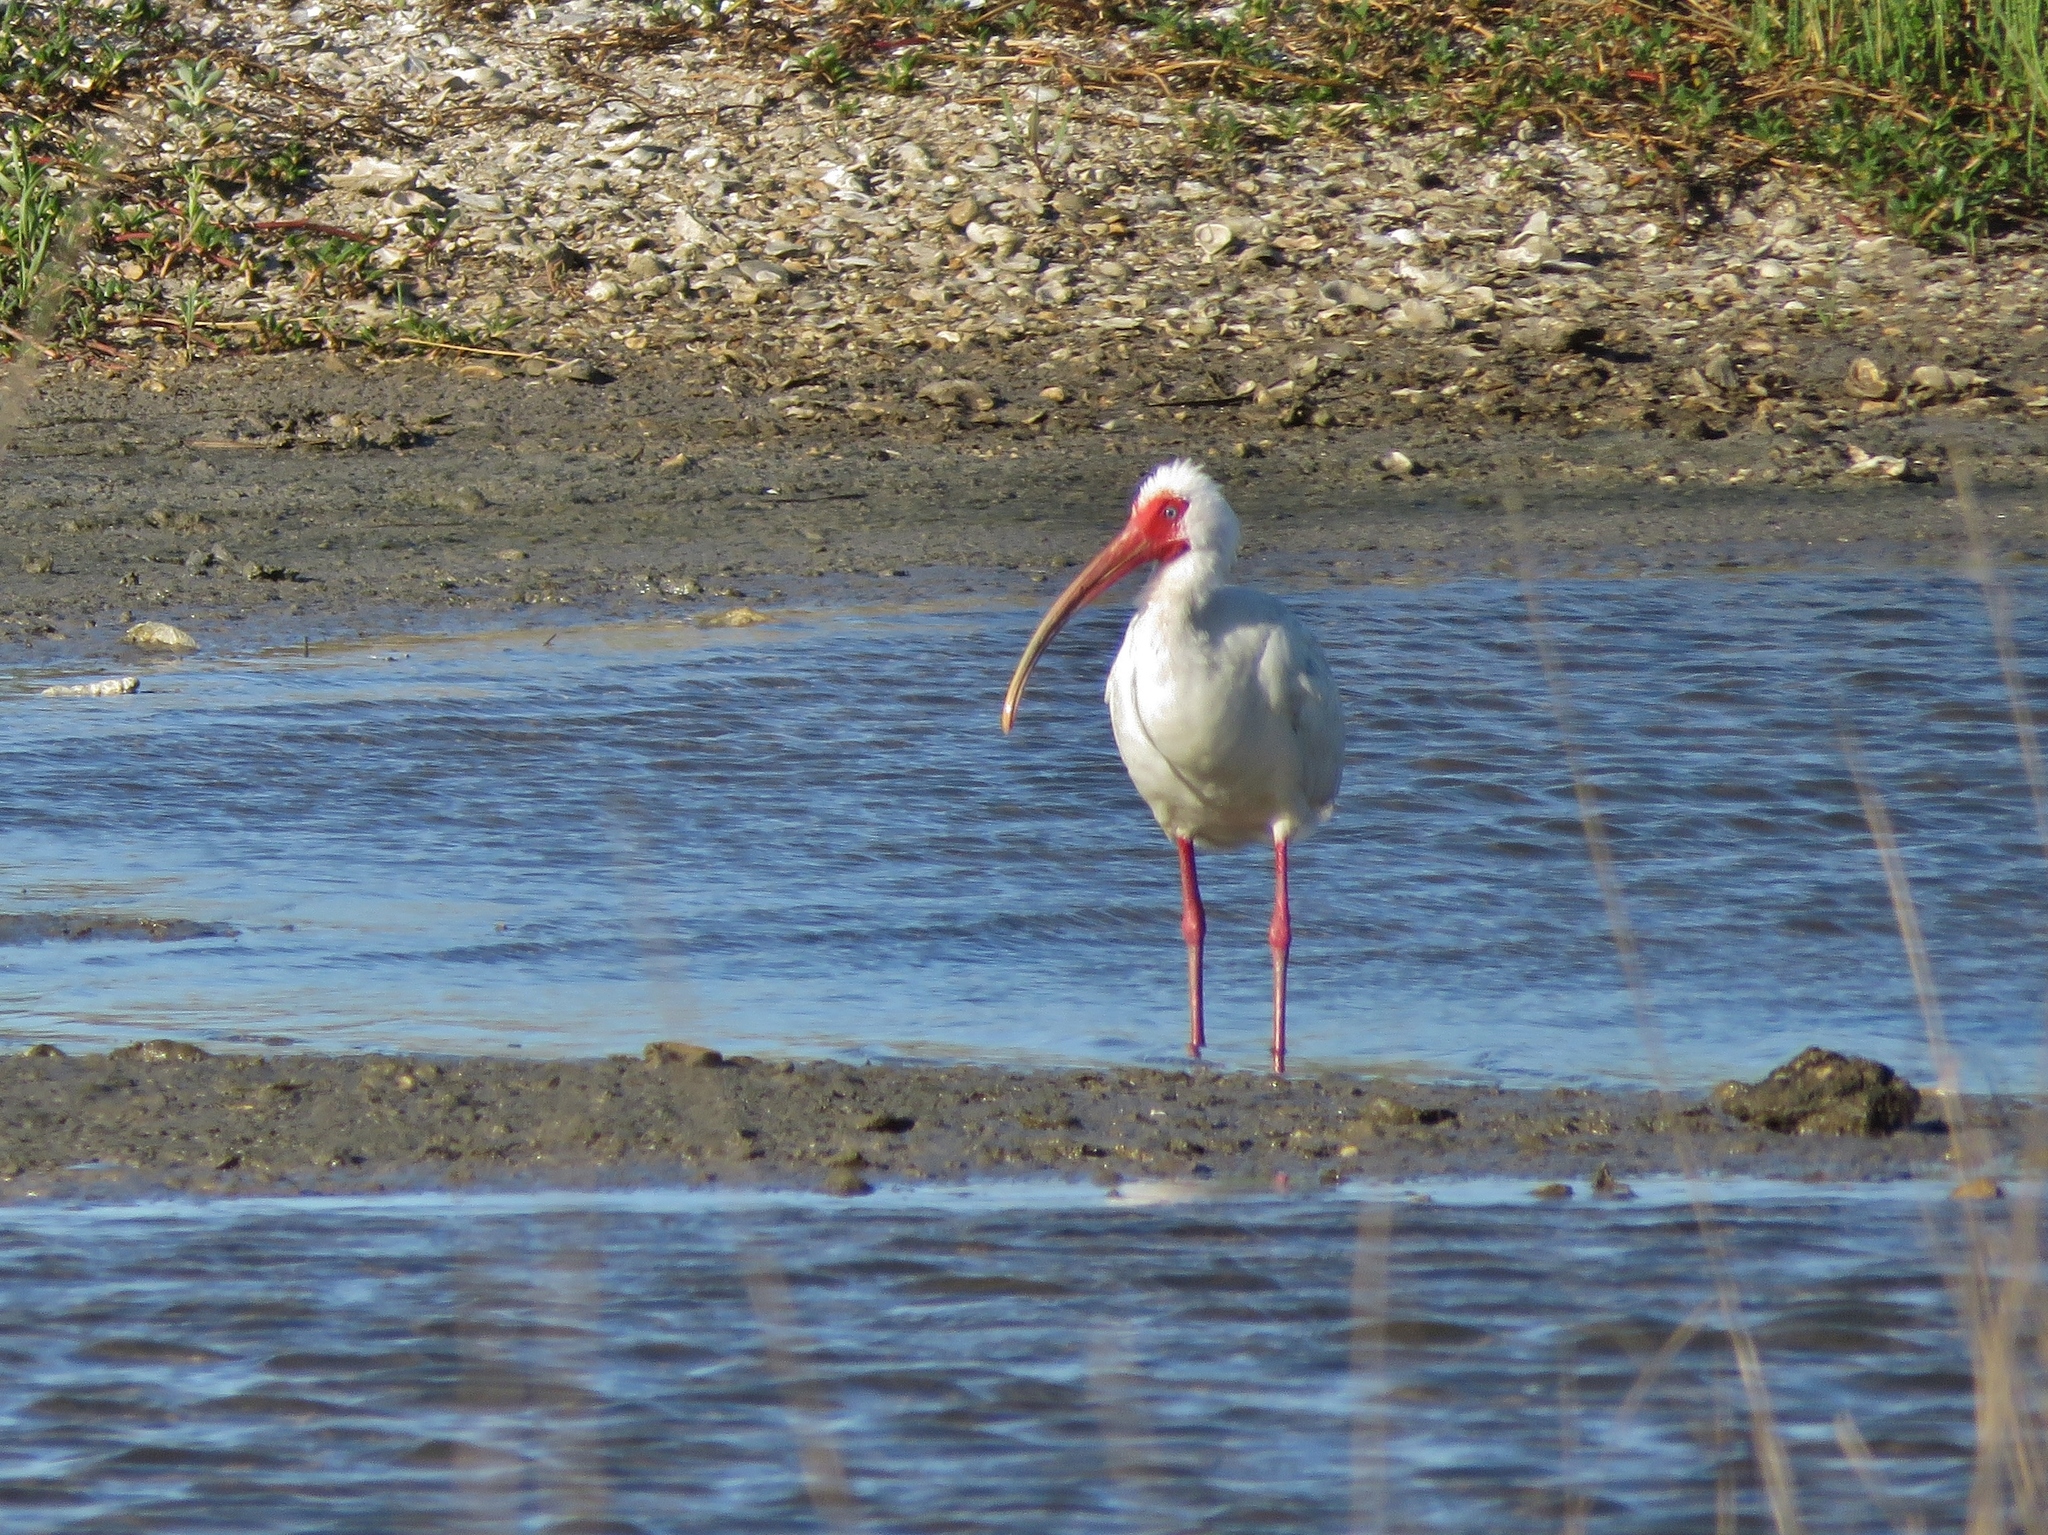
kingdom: Animalia
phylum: Chordata
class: Aves
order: Pelecaniformes
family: Threskiornithidae
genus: Eudocimus
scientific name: Eudocimus albus
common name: White ibis
